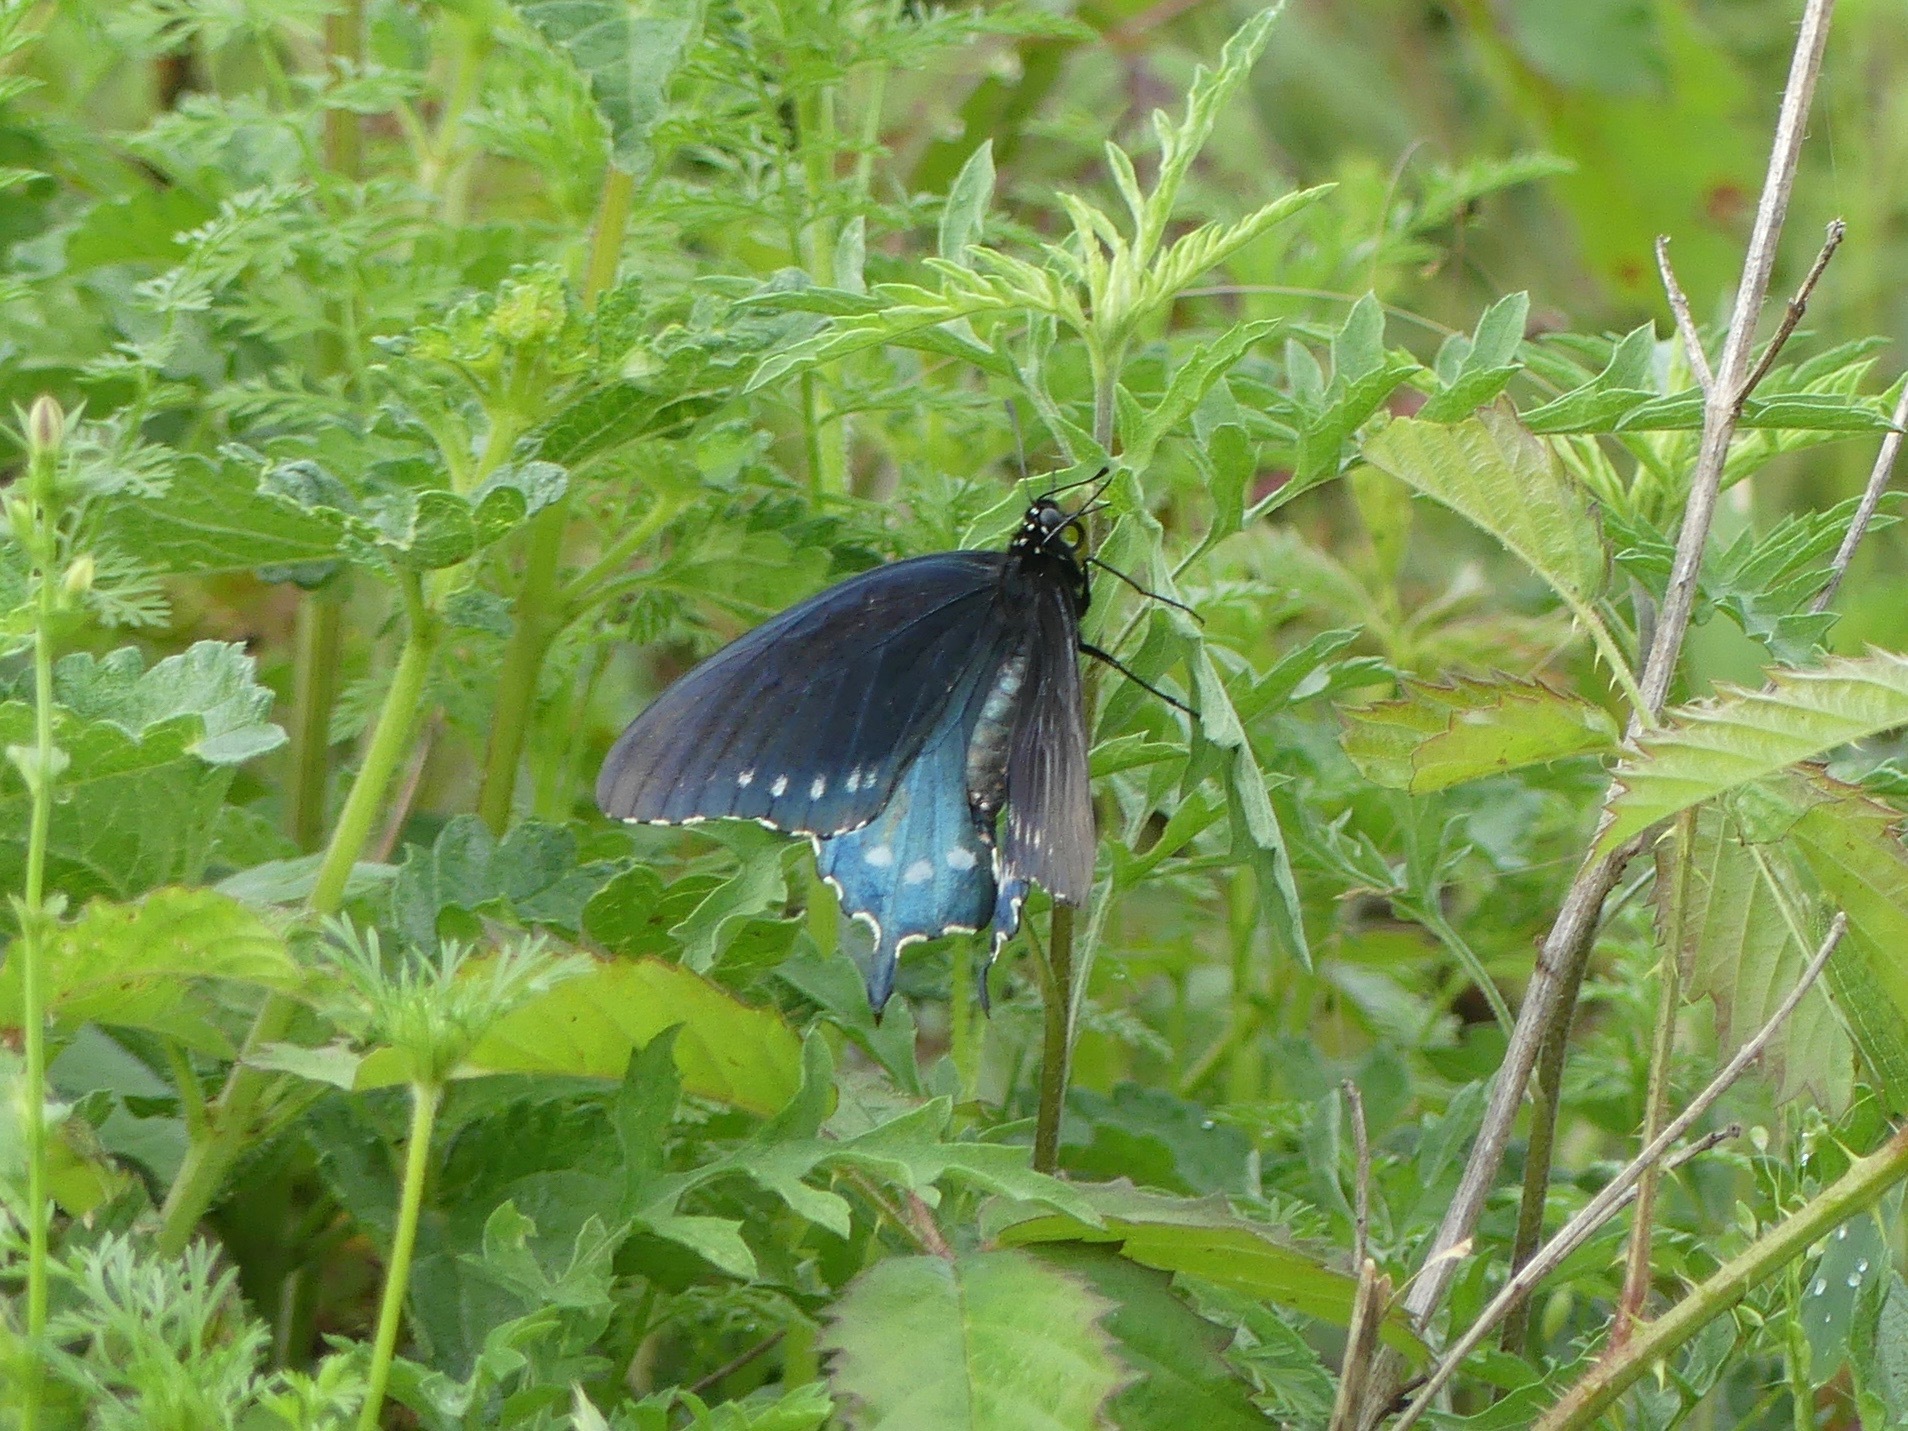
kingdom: Animalia
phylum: Arthropoda
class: Insecta
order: Lepidoptera
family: Papilionidae
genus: Battus
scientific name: Battus philenor
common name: Pipevine swallowtail
